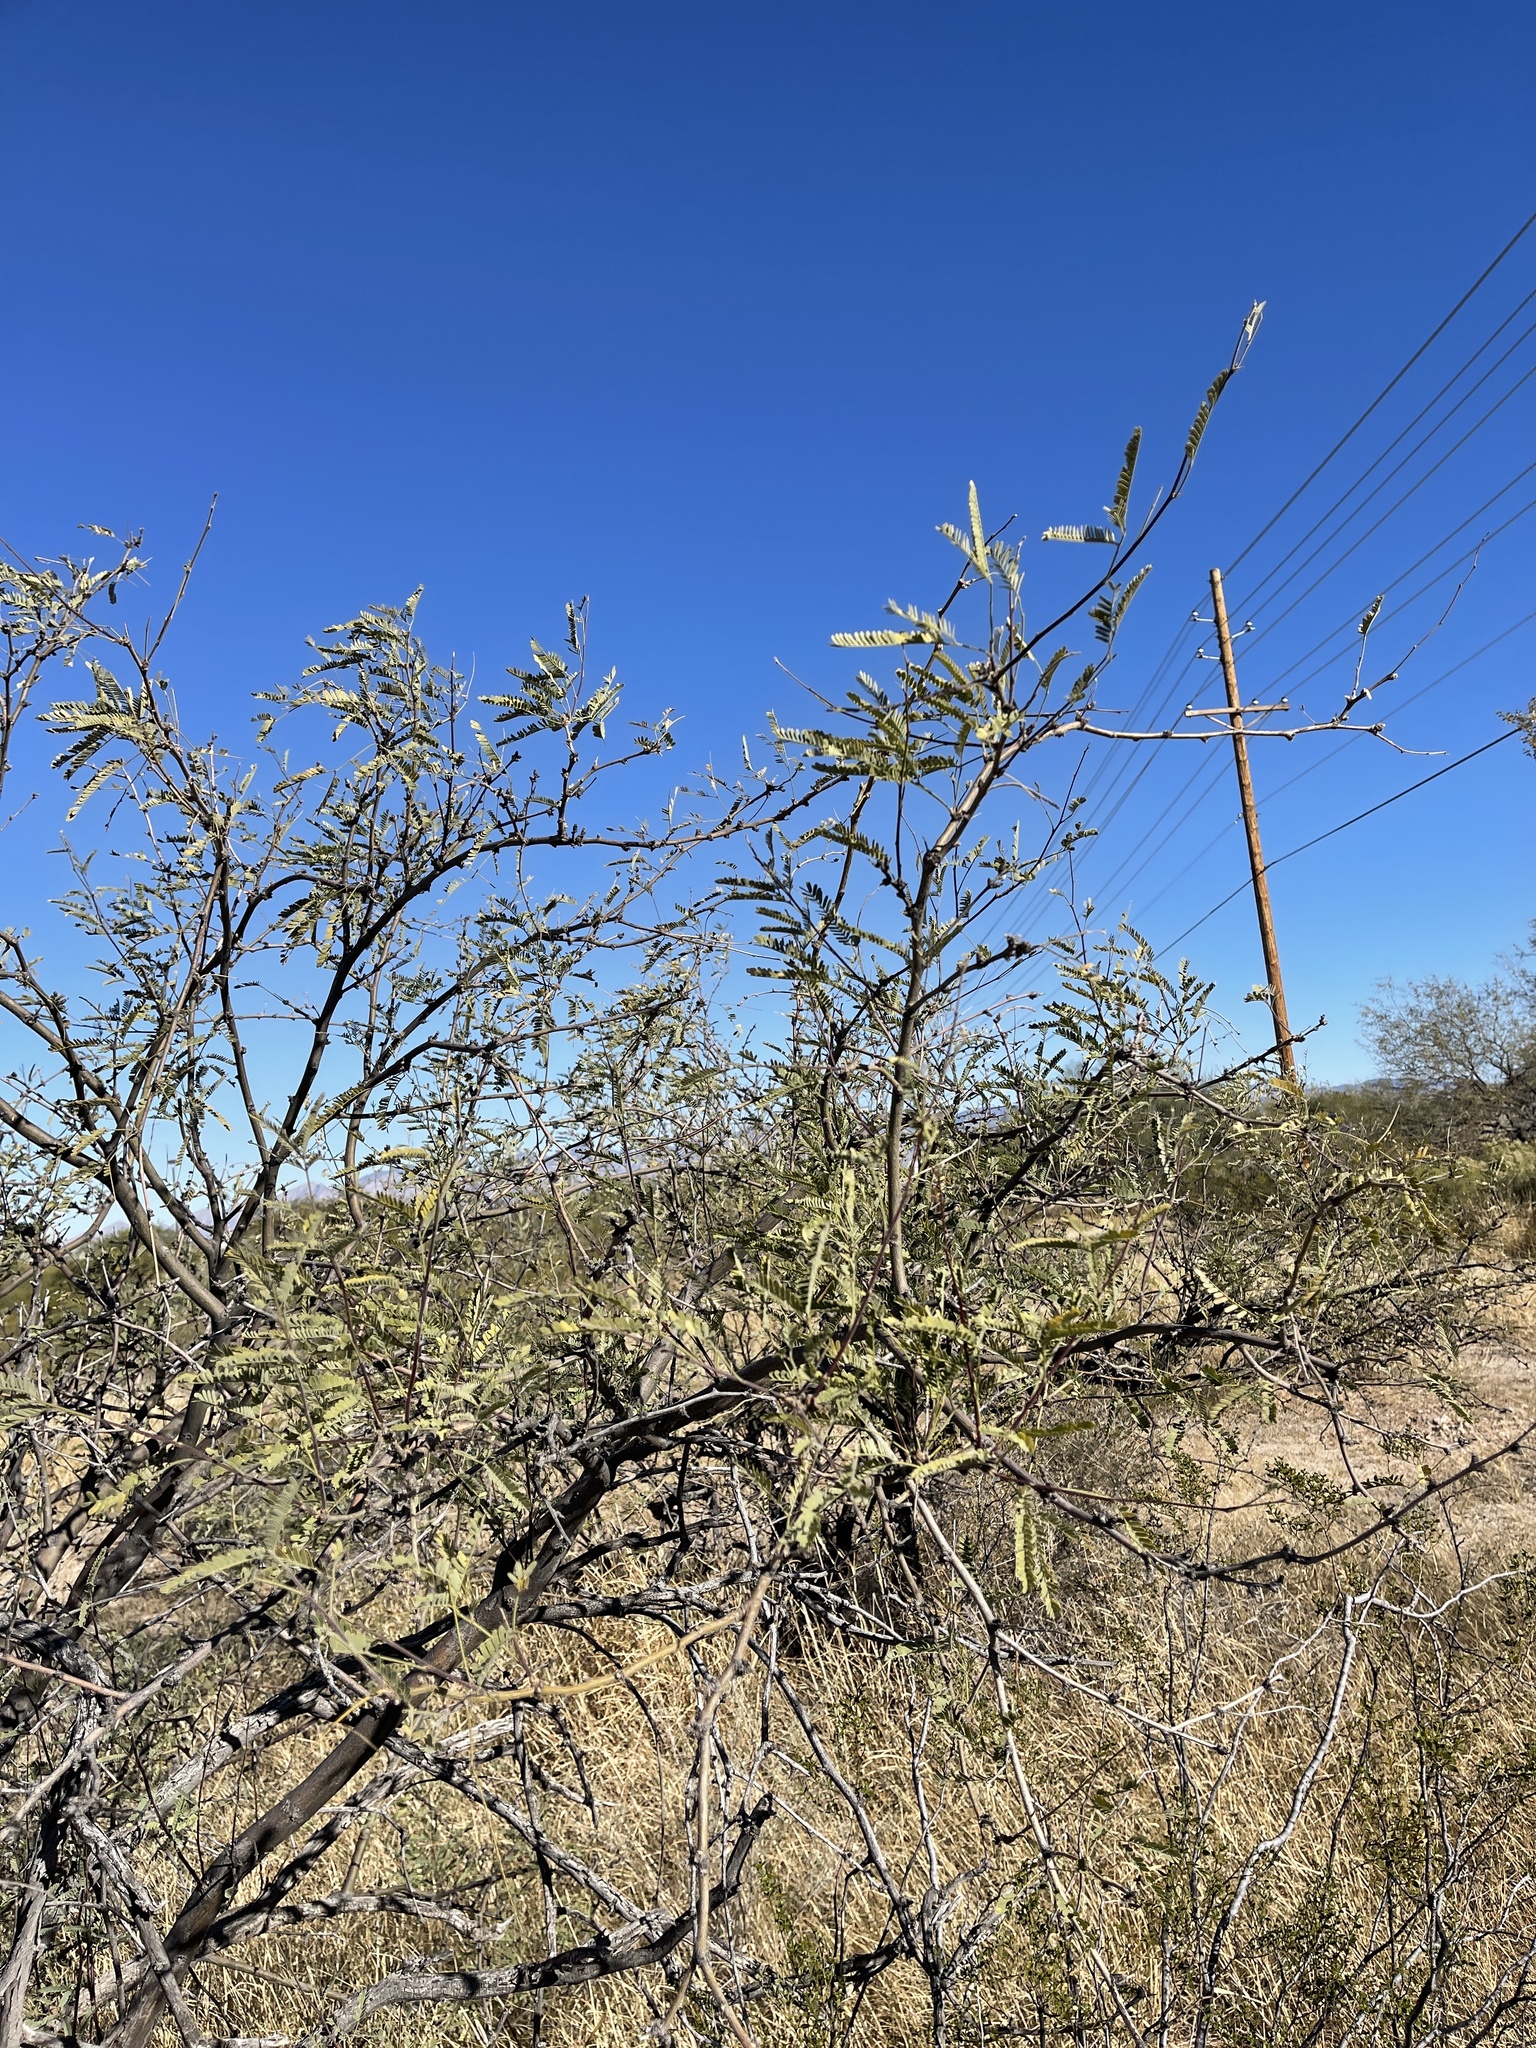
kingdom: Plantae
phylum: Tracheophyta
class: Magnoliopsida
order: Fabales
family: Fabaceae
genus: Prosopis
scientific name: Prosopis velutina
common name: Velvet mesquite
